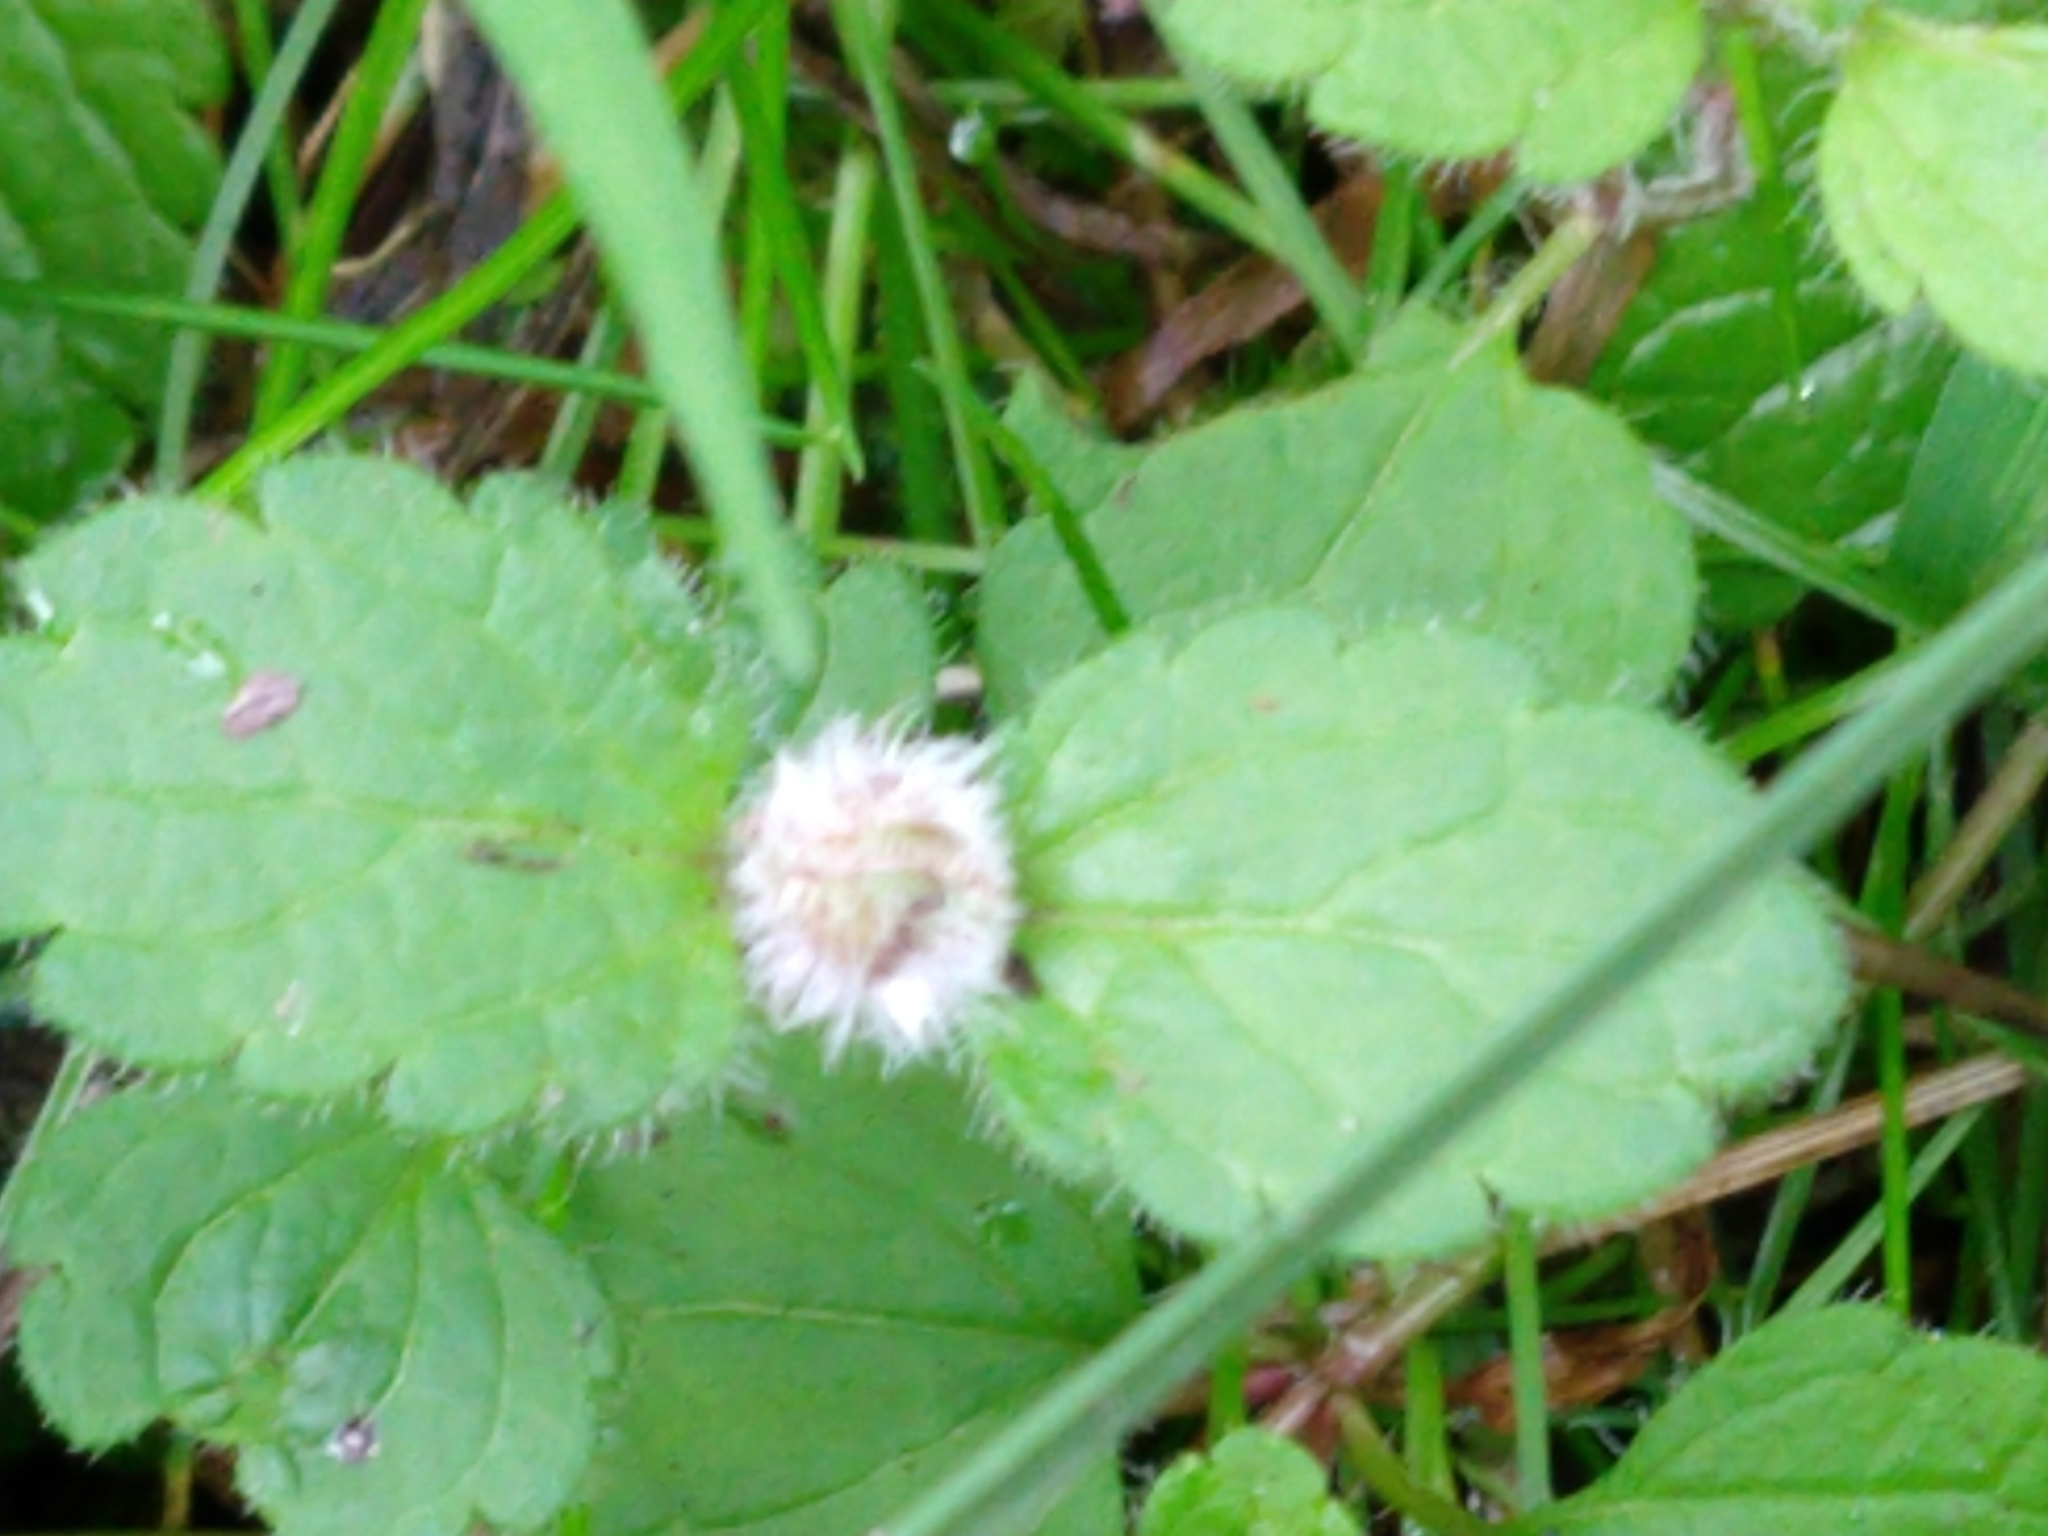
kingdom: Animalia
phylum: Arthropoda
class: Insecta
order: Diptera
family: Cecidomyiidae
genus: Jaapiella
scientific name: Jaapiella veronicae
